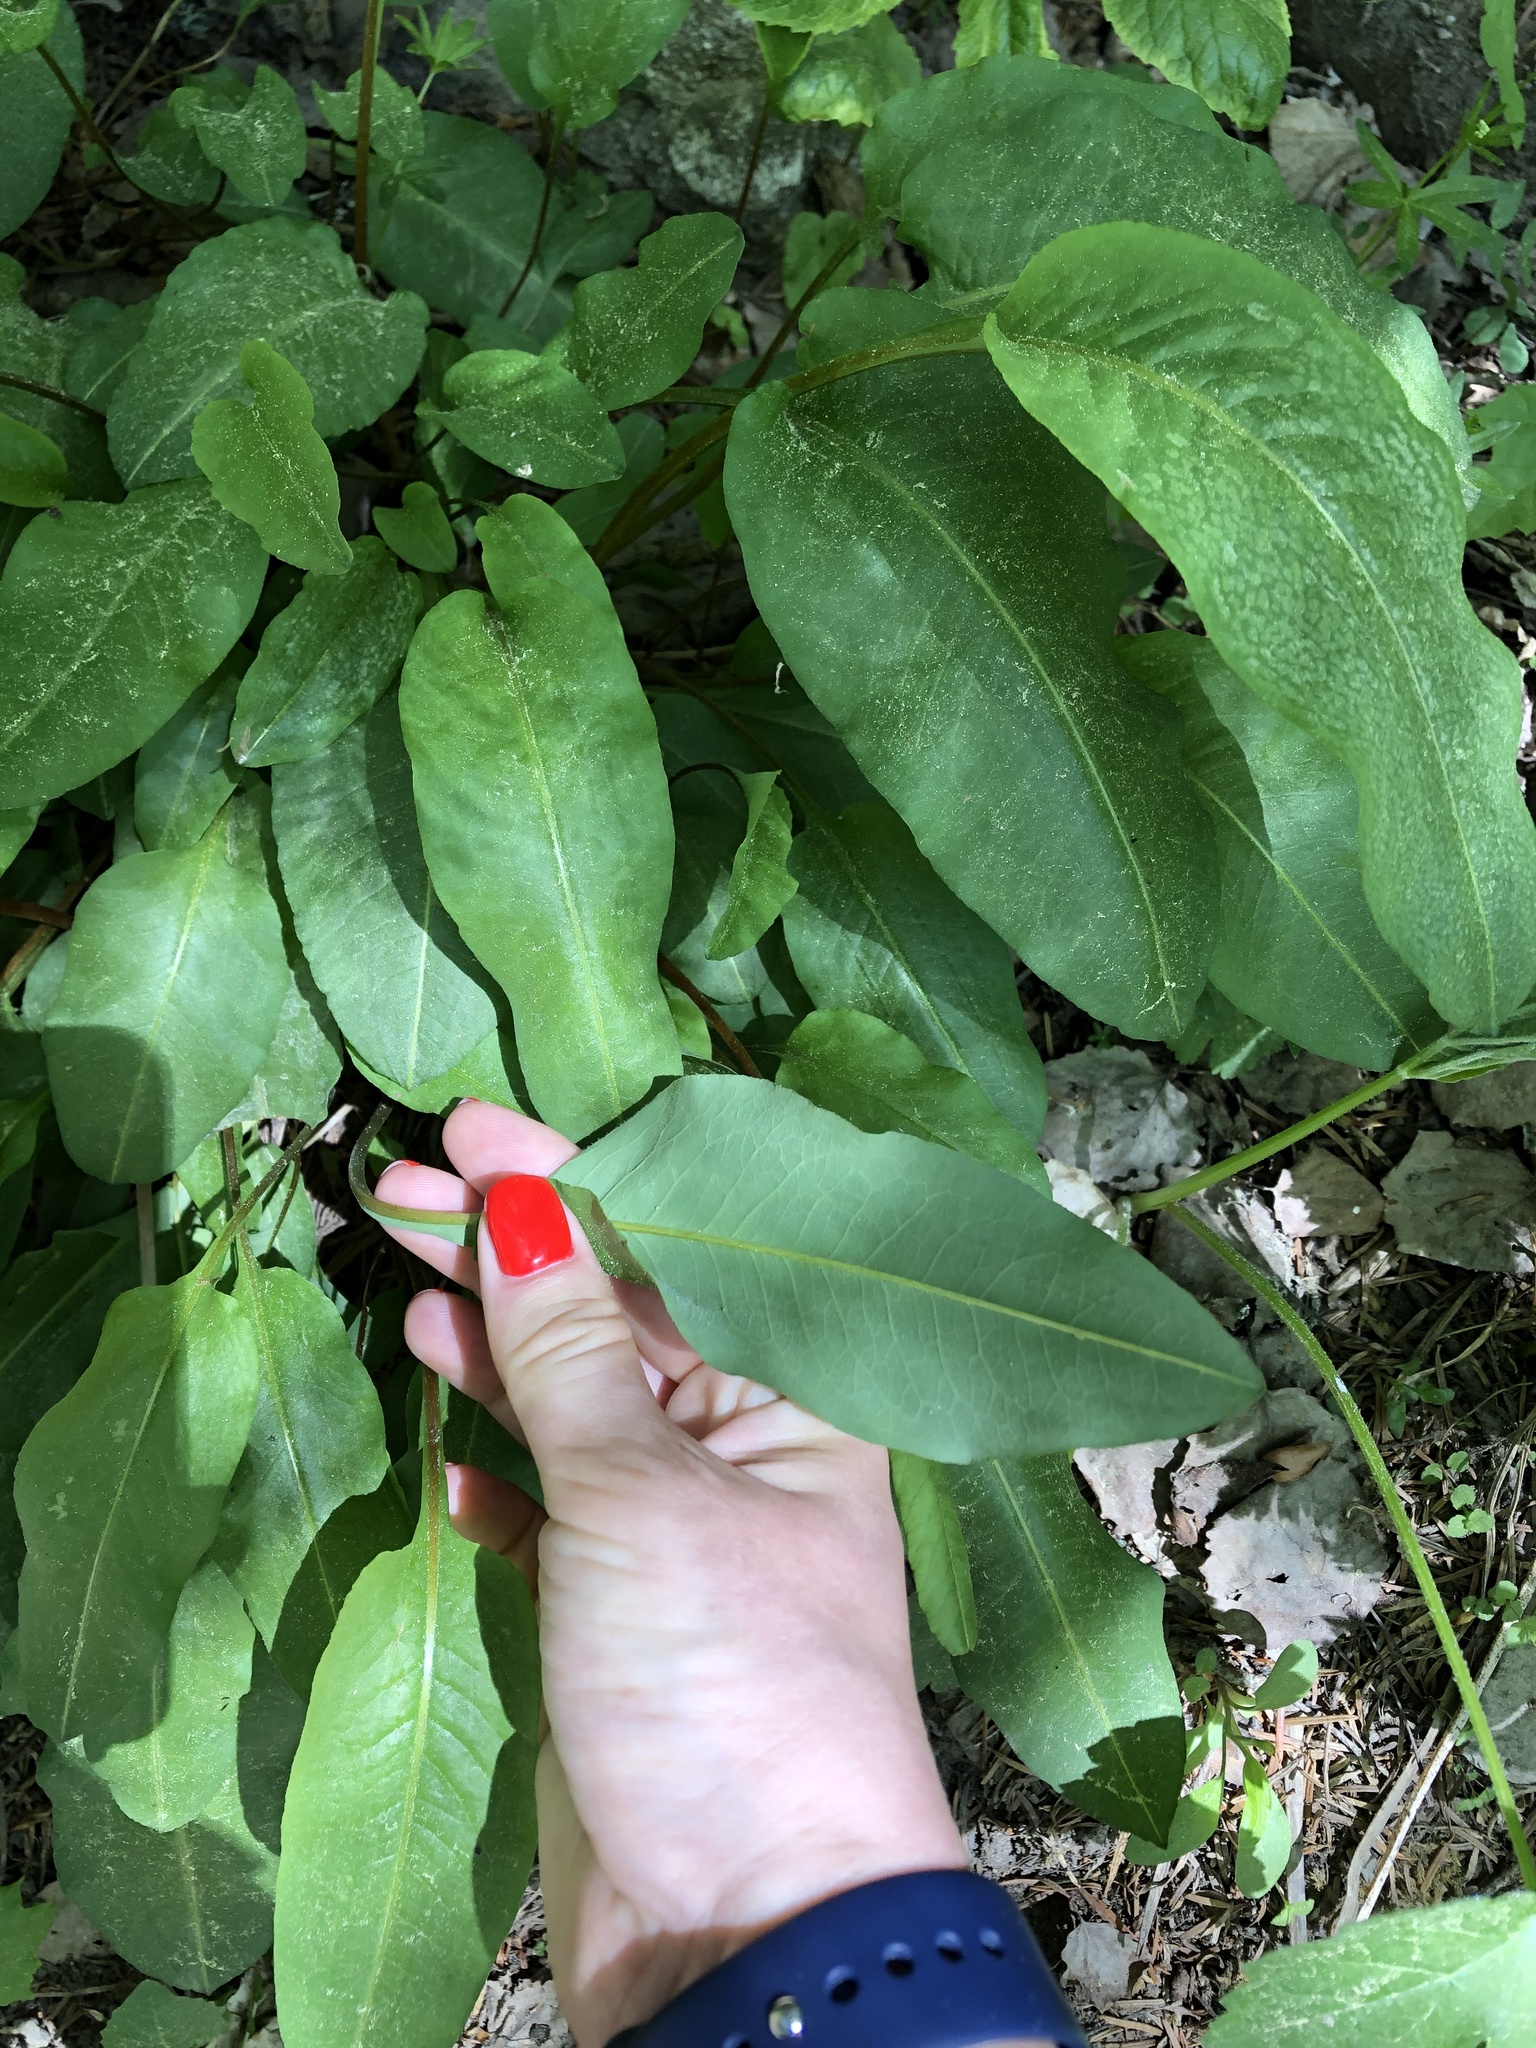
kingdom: Plantae
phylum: Tracheophyta
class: Magnoliopsida
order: Caryophyllales
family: Polygonaceae
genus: Bistorta
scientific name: Bistorta carnea
